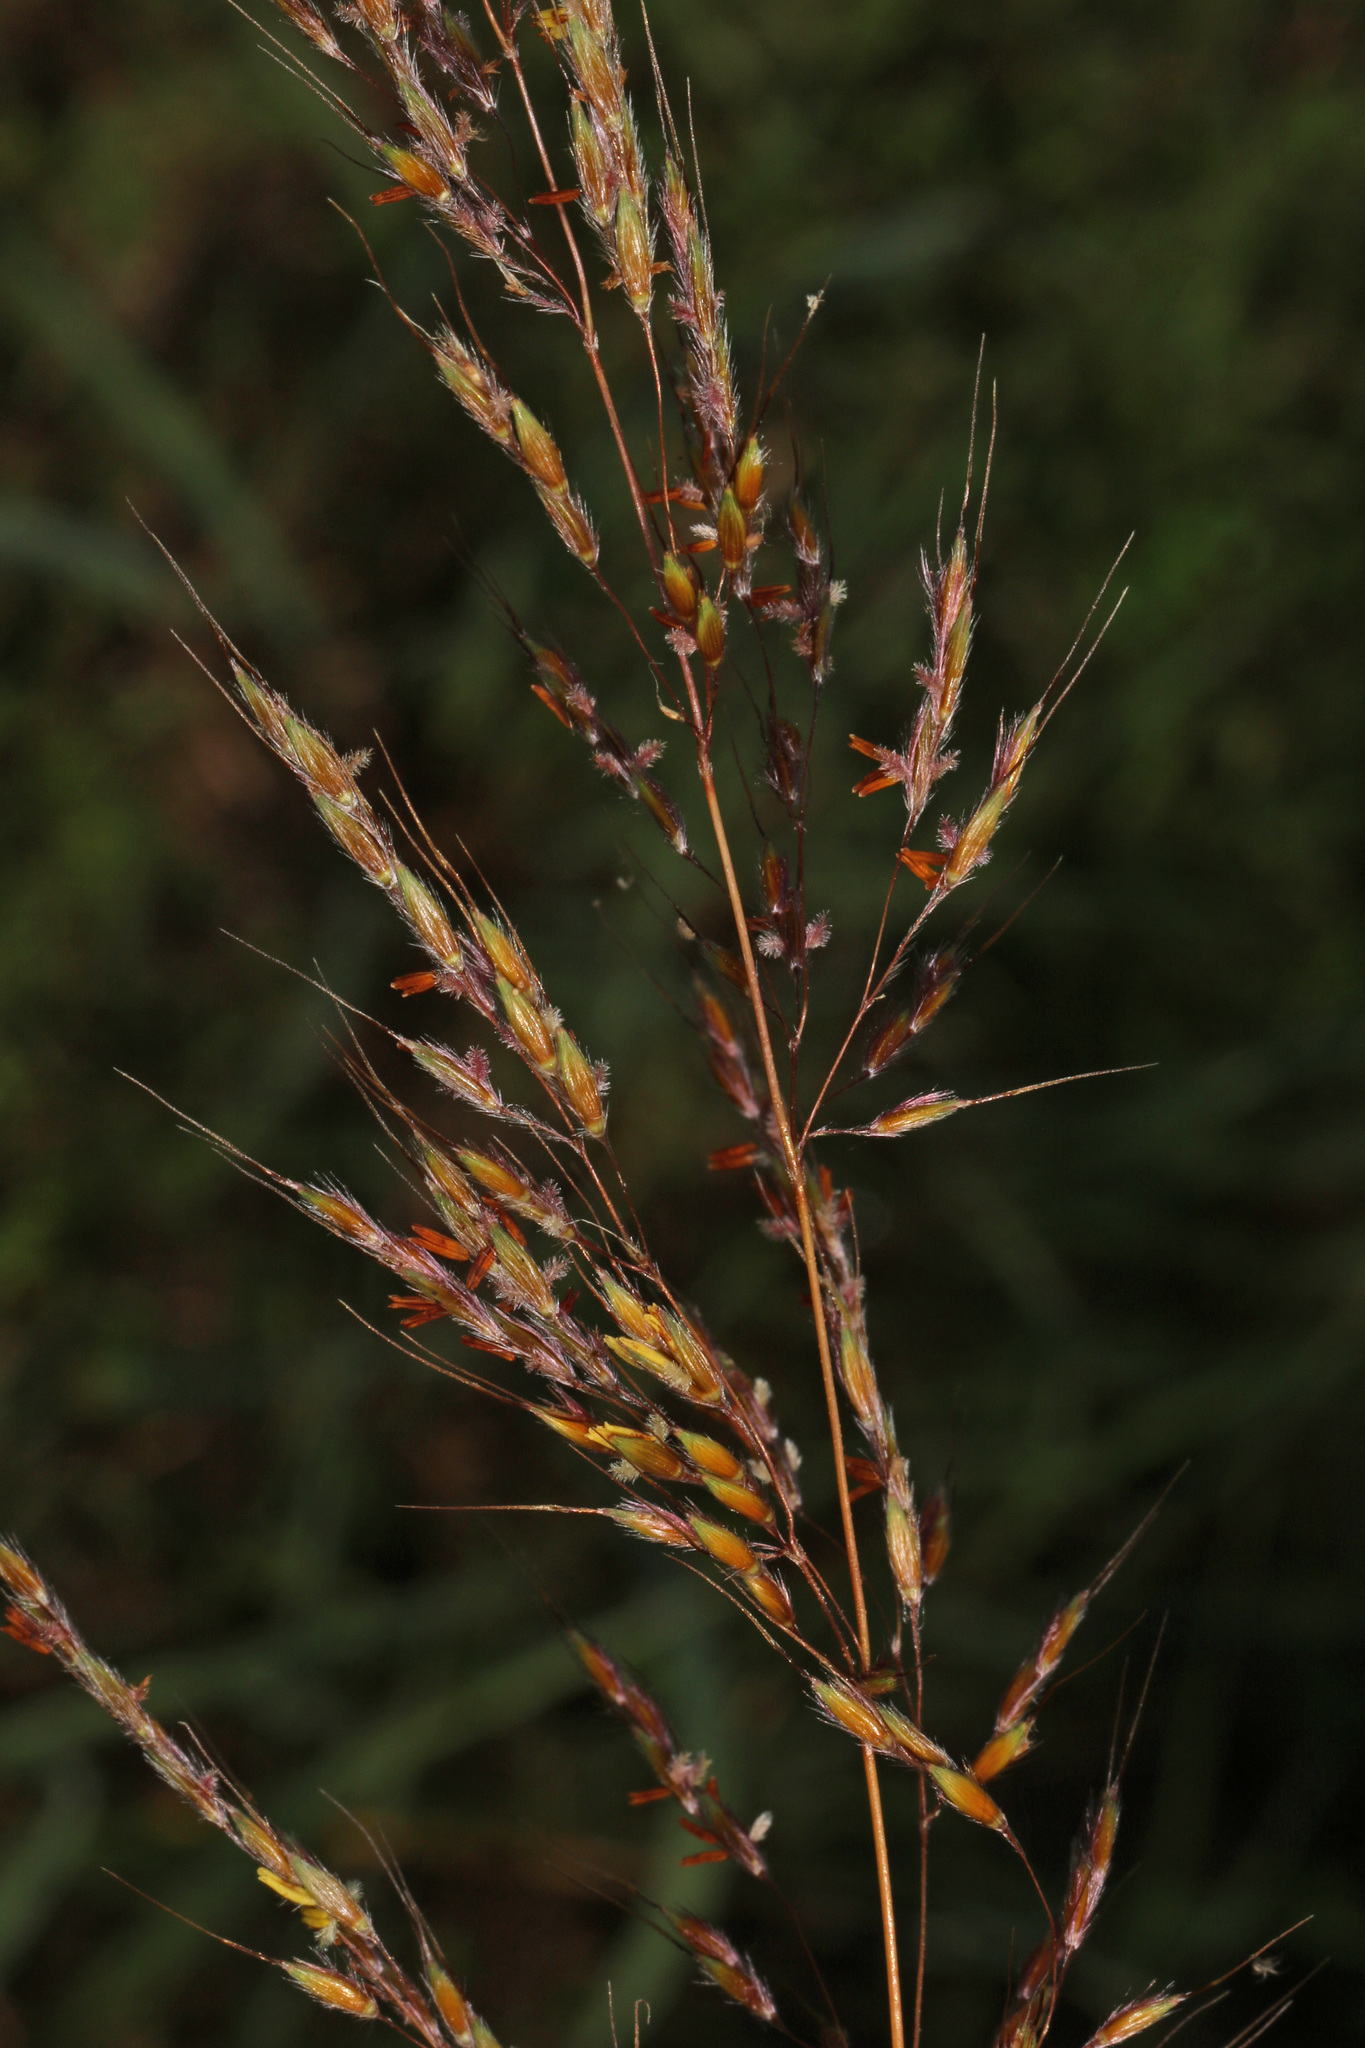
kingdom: Plantae
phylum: Tracheophyta
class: Liliopsida
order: Poales
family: Poaceae
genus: Sorghastrum
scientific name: Sorghastrum nutans
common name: Indian grass
